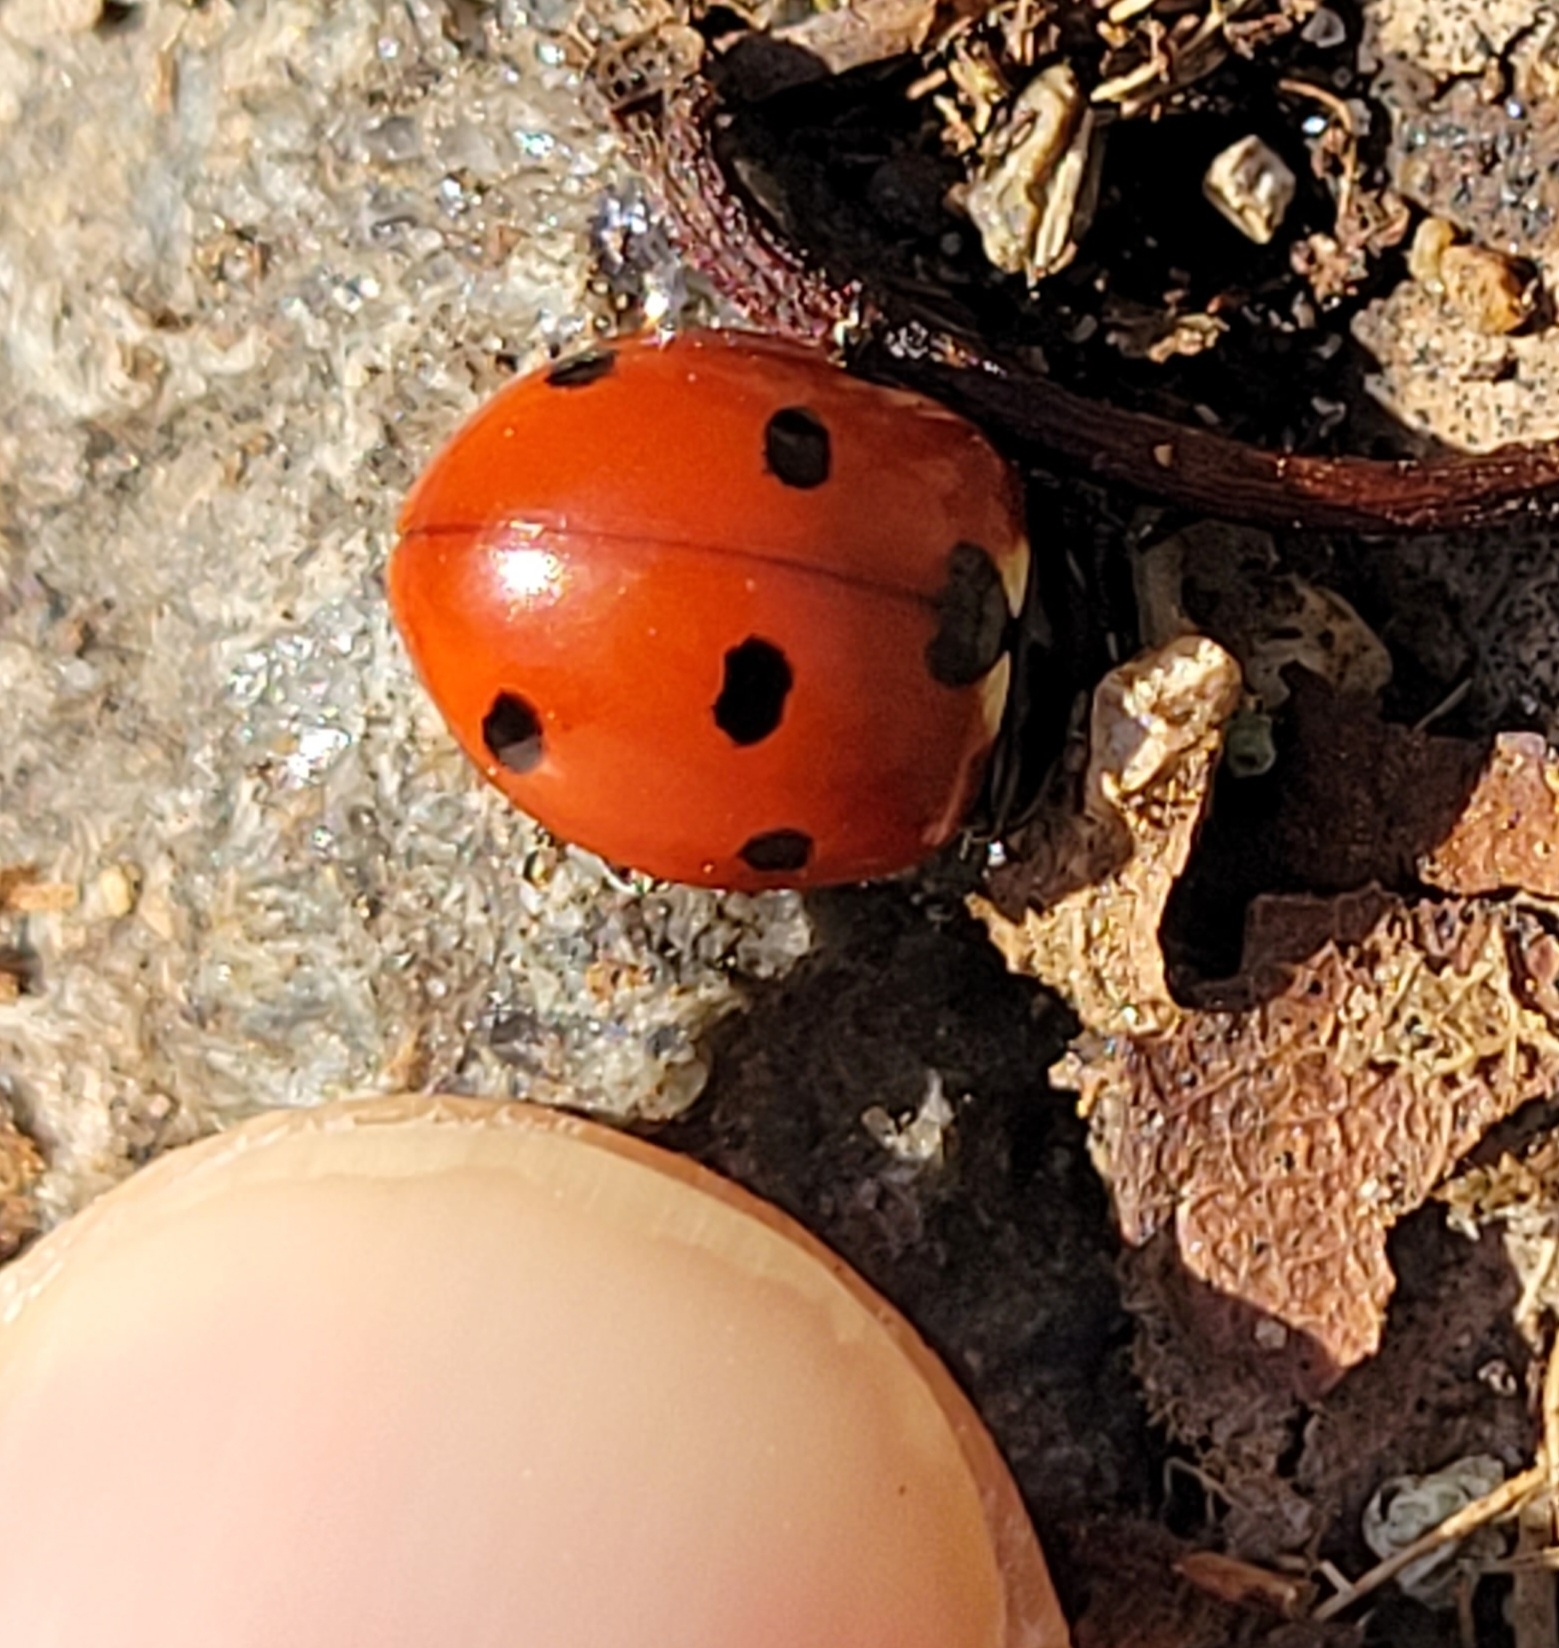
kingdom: Animalia
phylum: Arthropoda
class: Insecta
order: Coleoptera
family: Coccinellidae
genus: Coccinella
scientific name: Coccinella septempunctata
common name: Sevenspotted lady beetle
